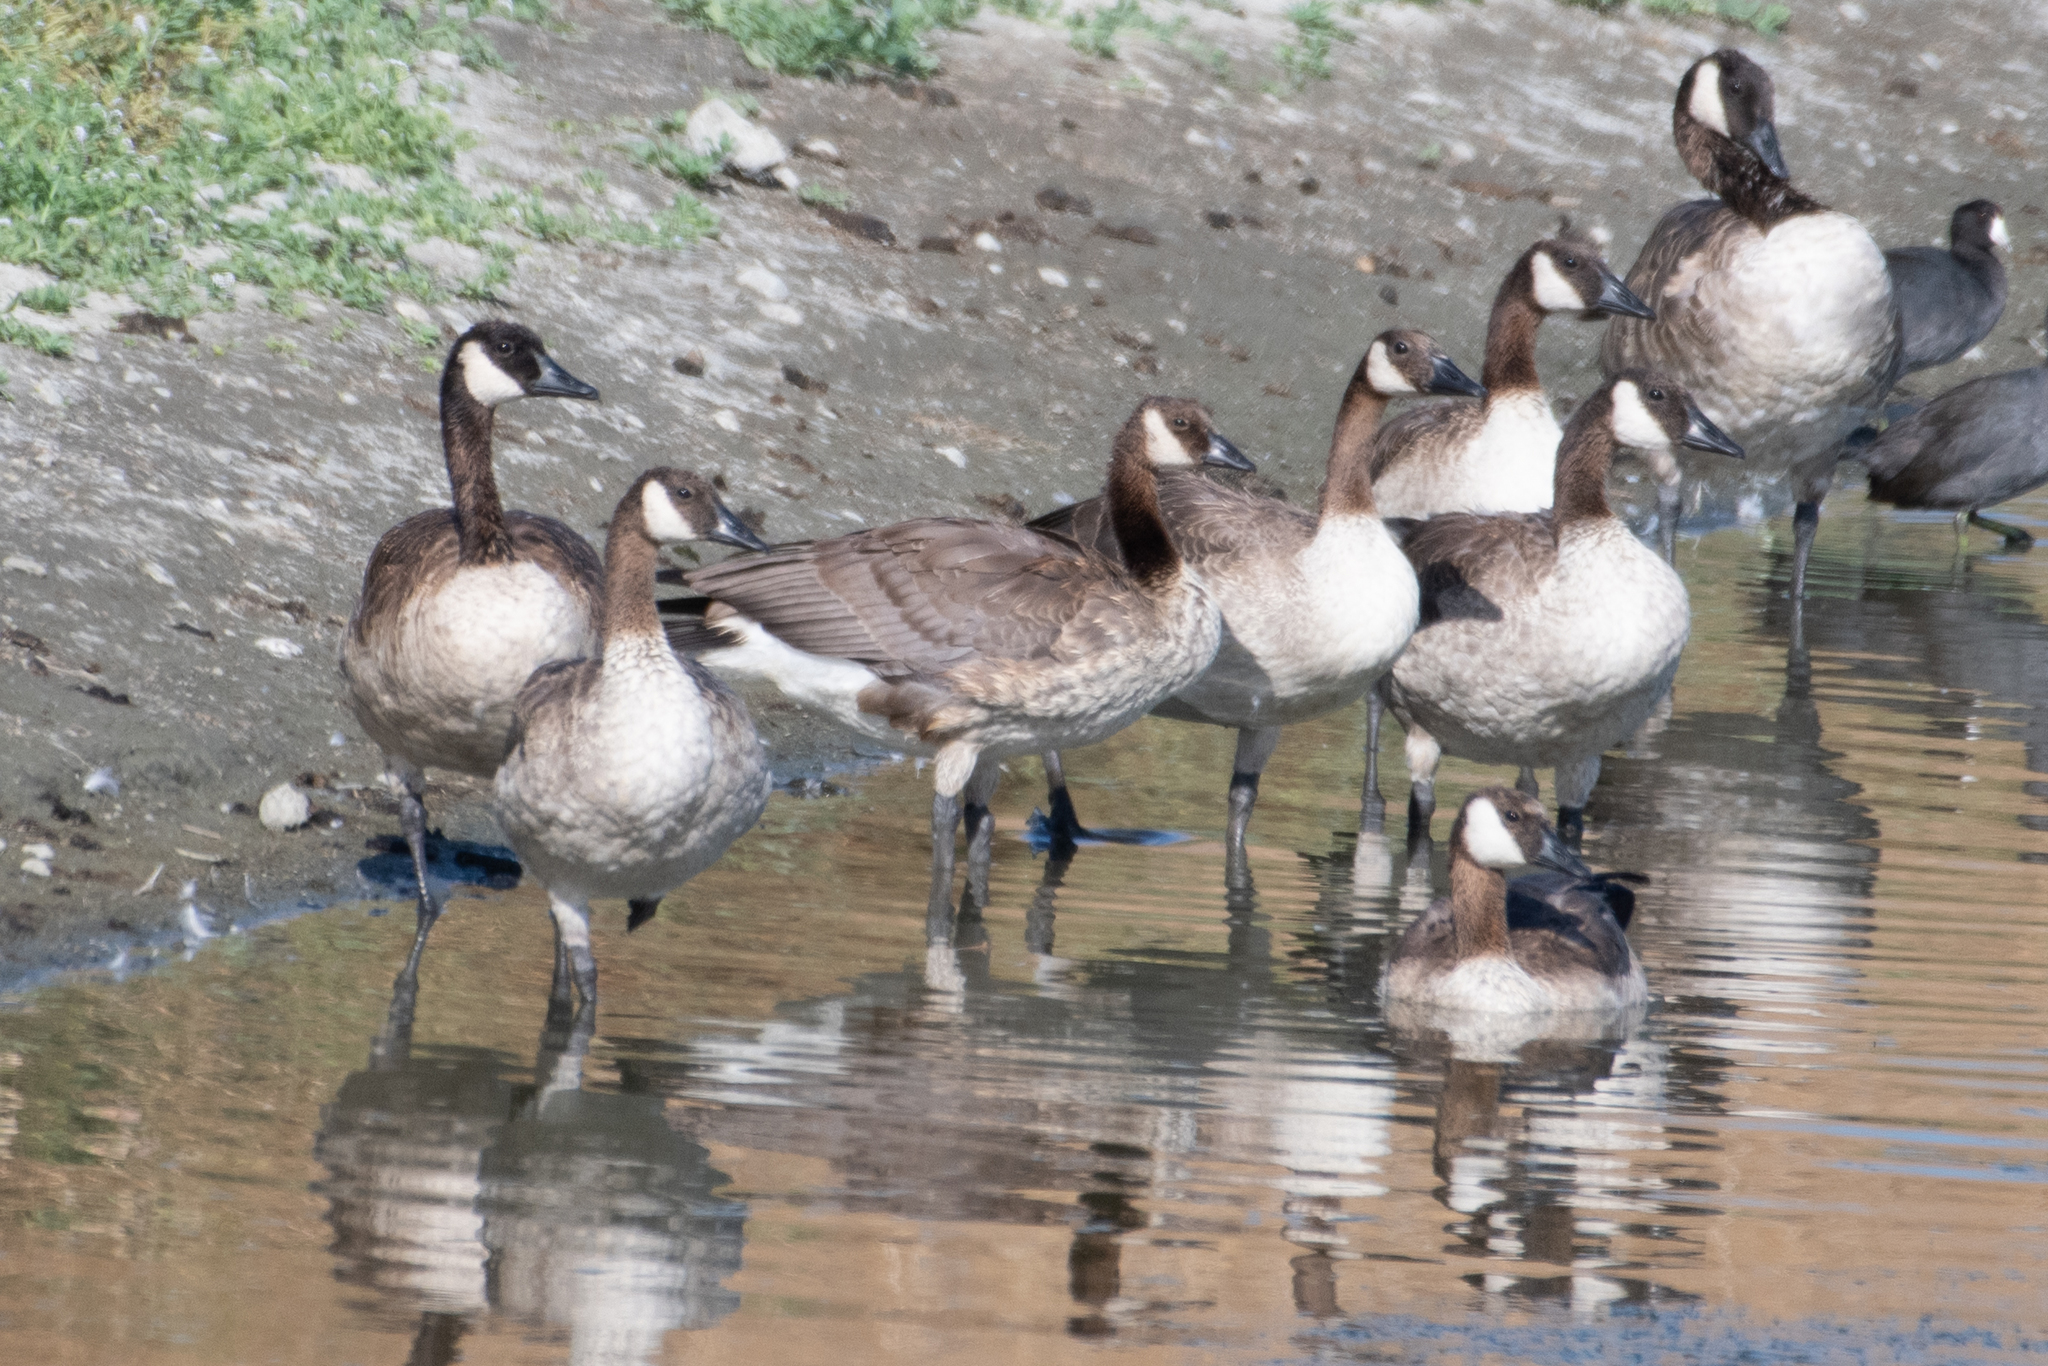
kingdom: Animalia
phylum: Chordata
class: Aves
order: Anseriformes
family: Anatidae
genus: Branta
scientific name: Branta canadensis
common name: Canada goose
